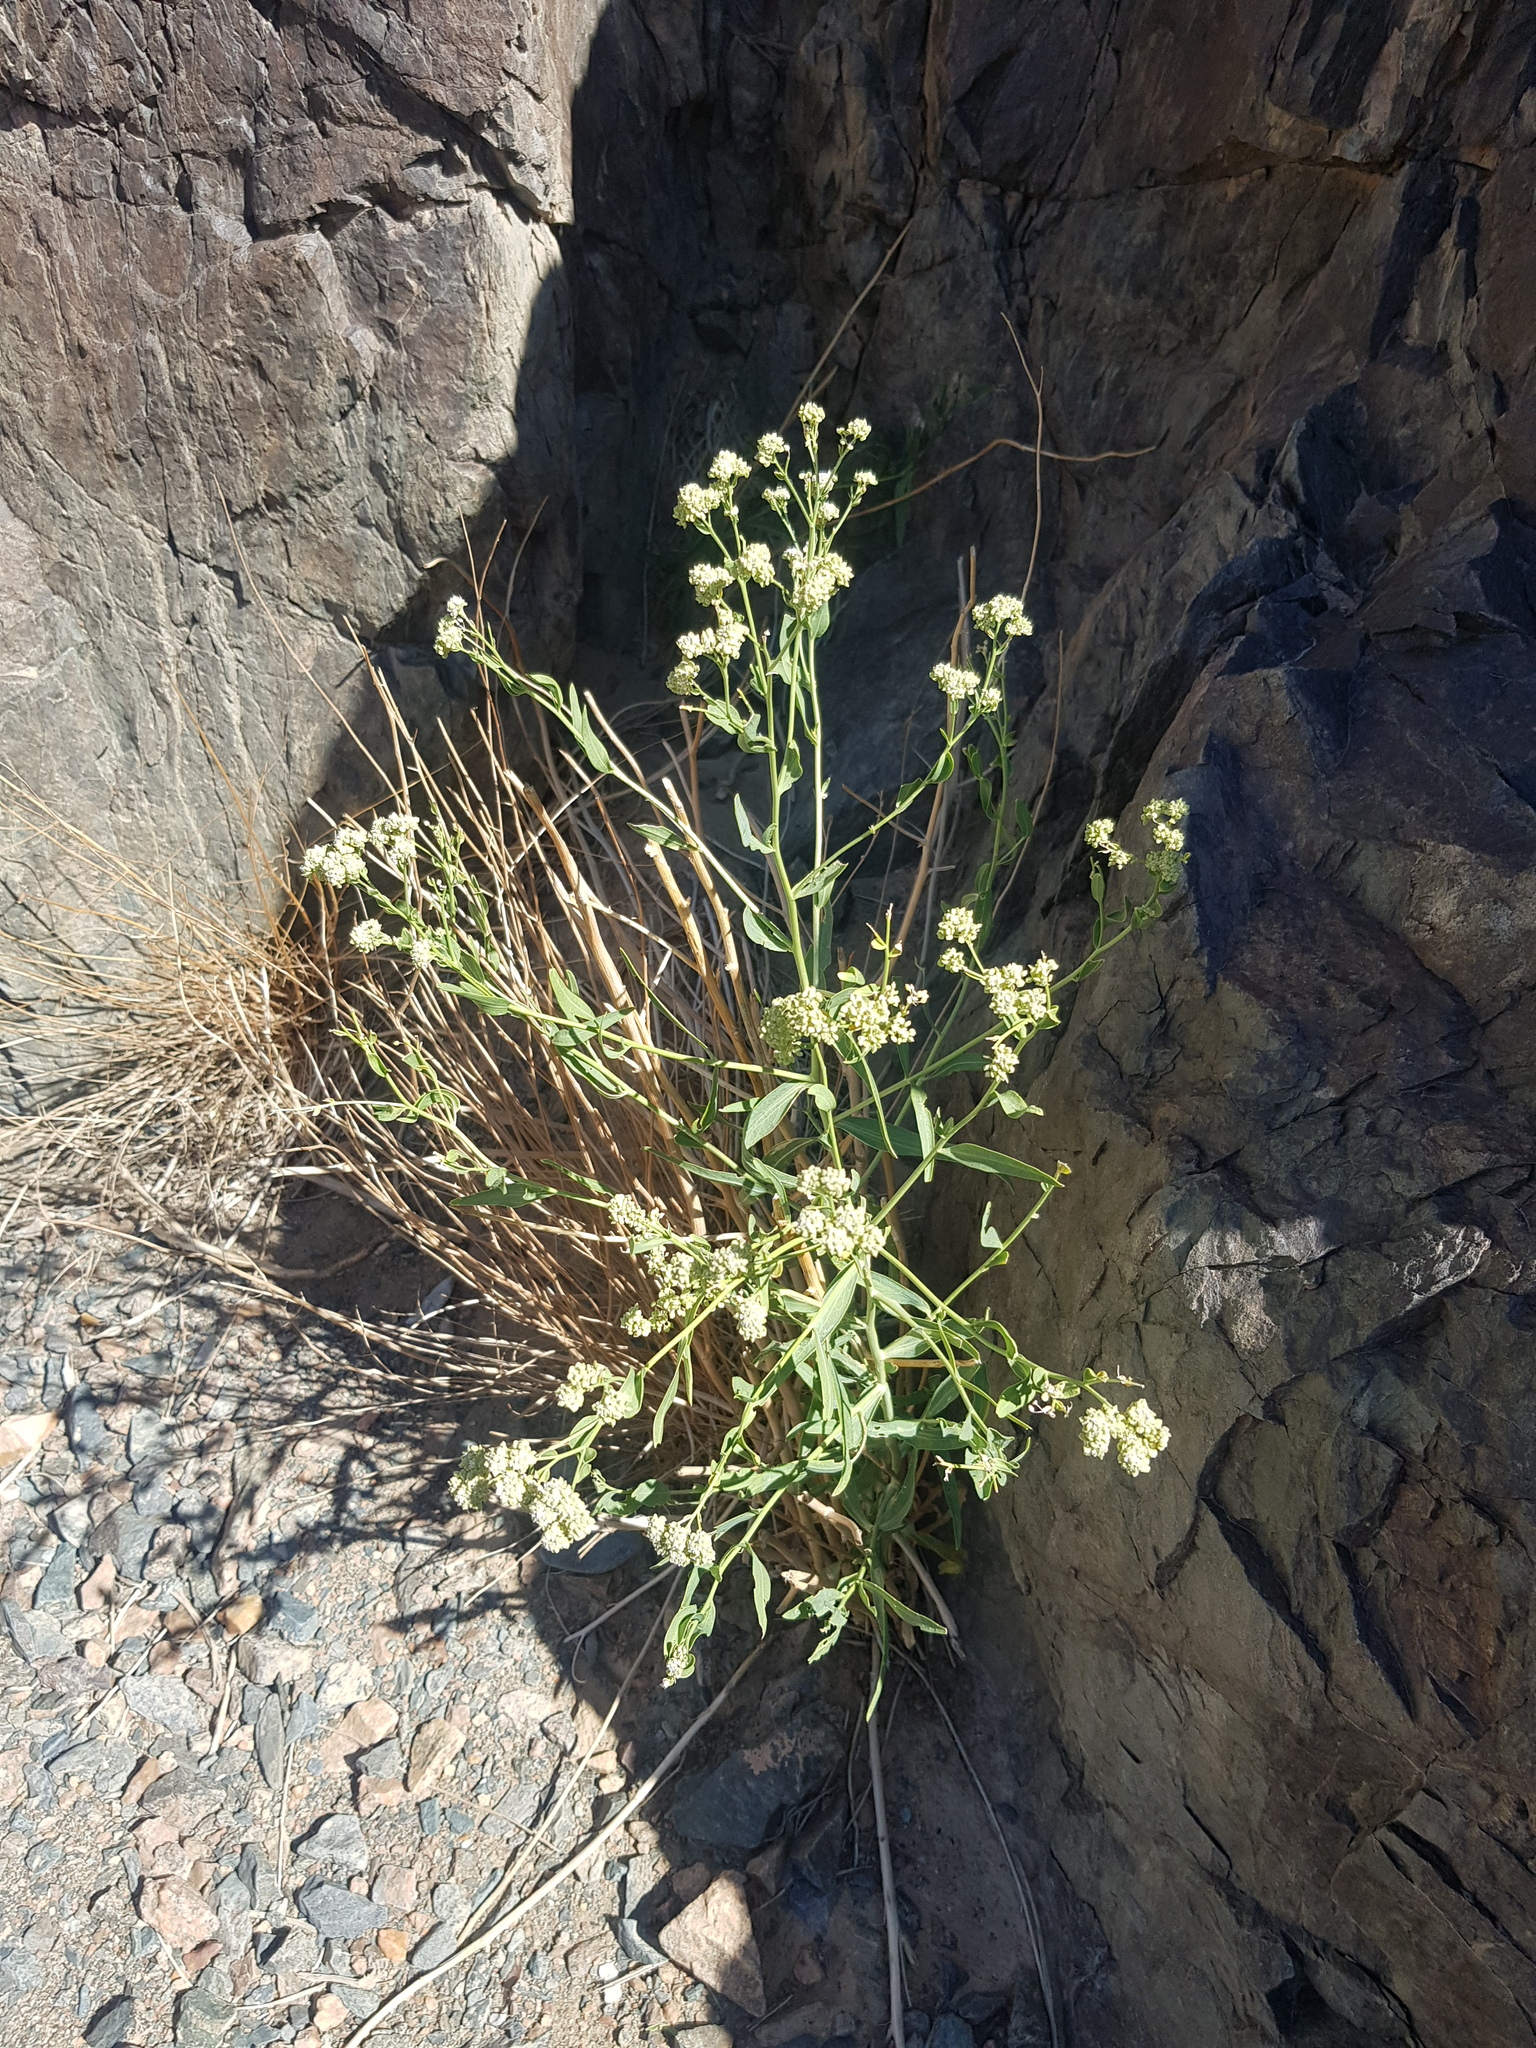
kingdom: Plantae
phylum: Tracheophyta
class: Magnoliopsida
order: Brassicales
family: Brassicaceae
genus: Lepidium
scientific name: Lepidium latifolium
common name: Dittander
